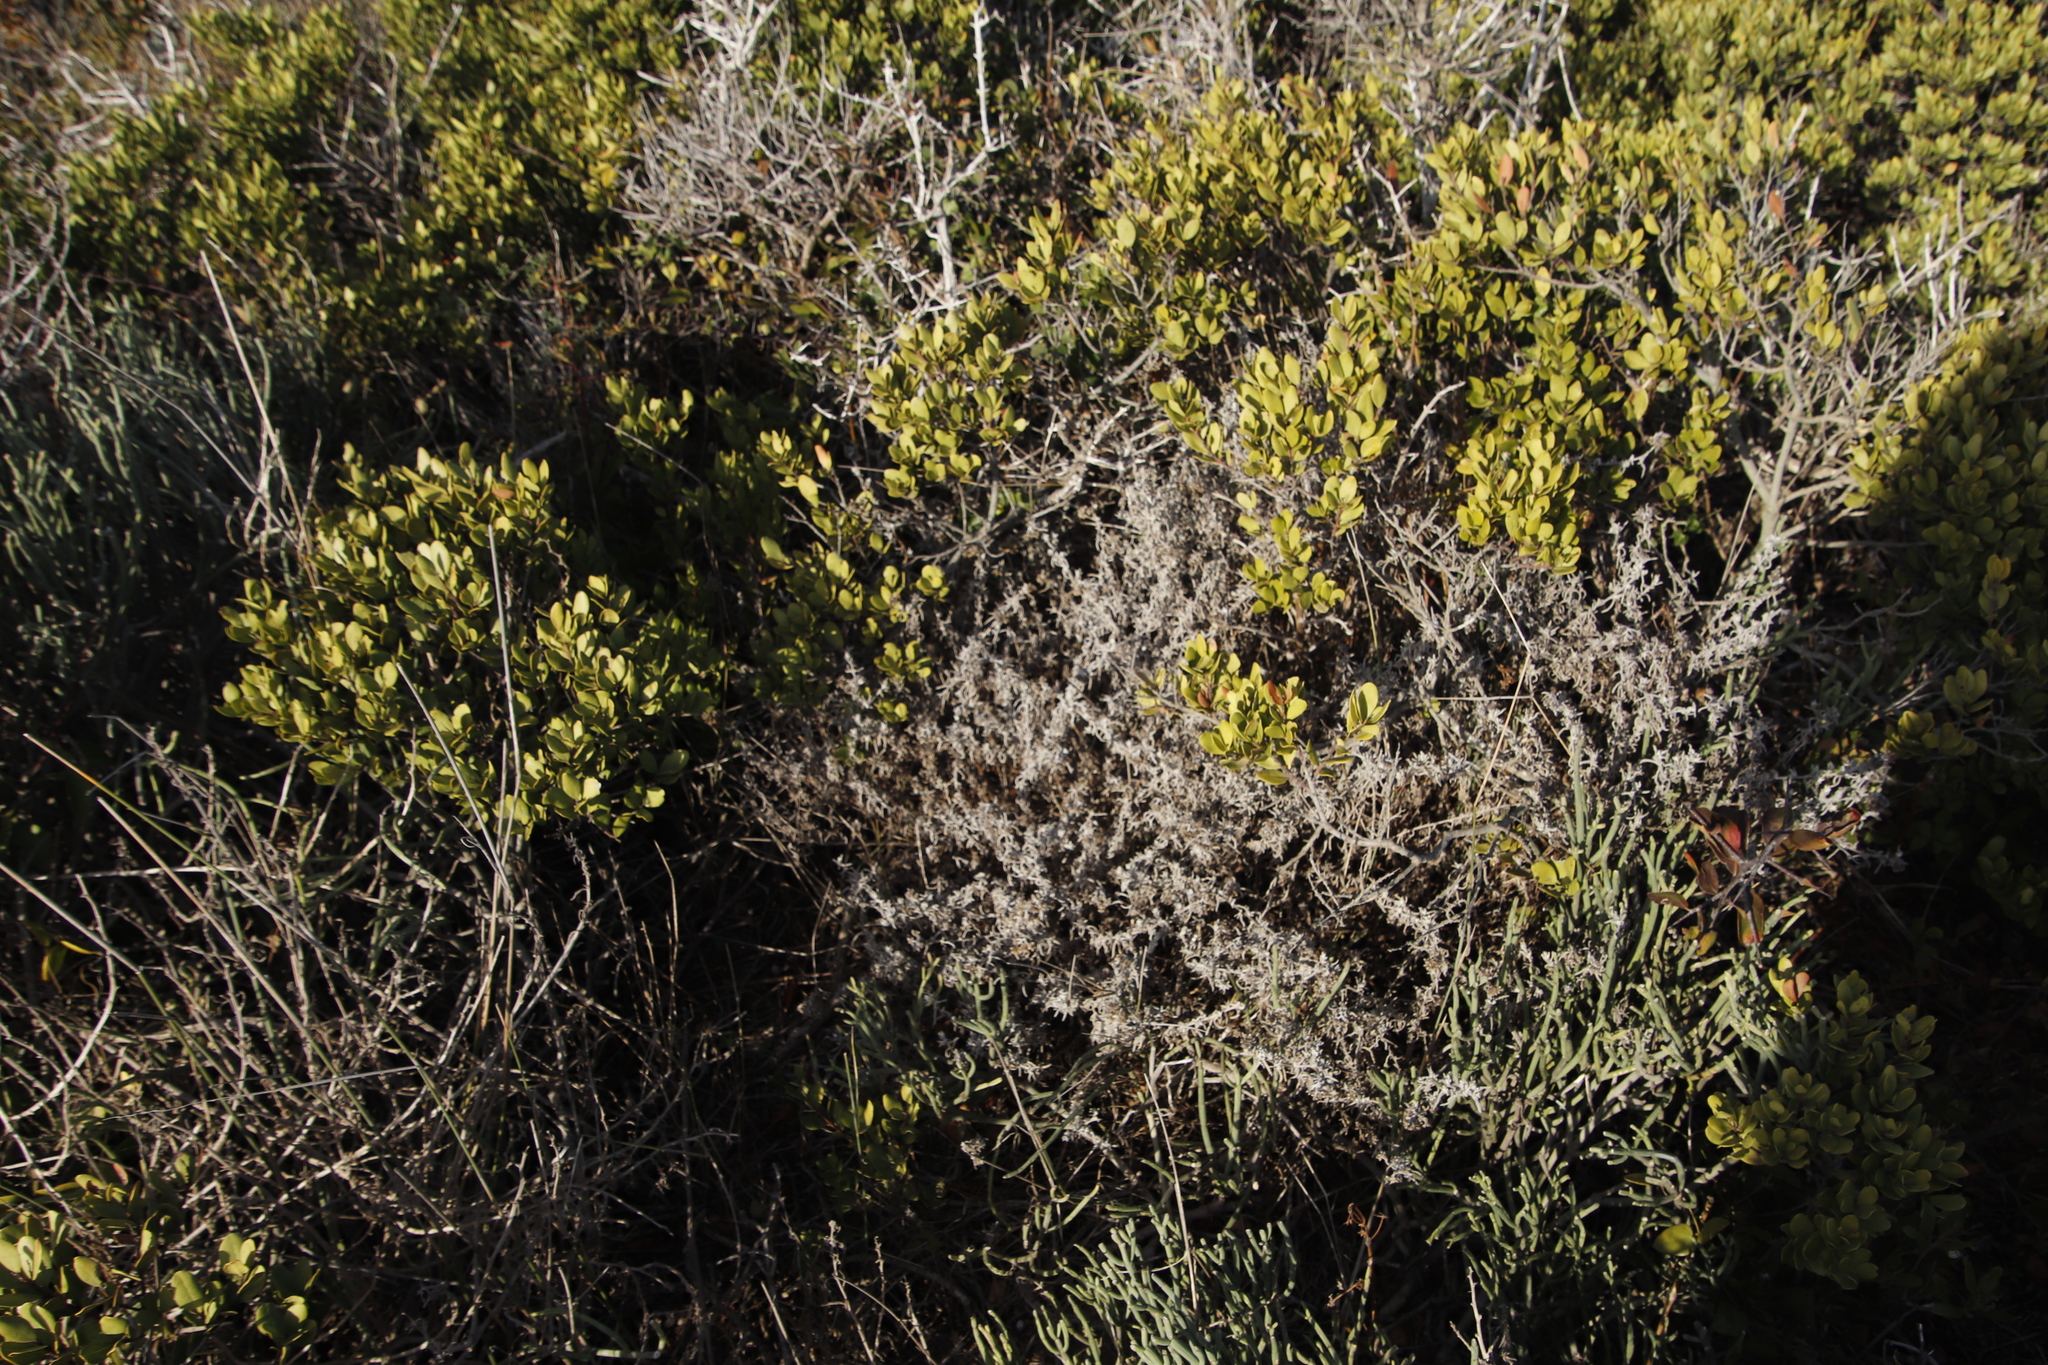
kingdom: Plantae
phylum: Tracheophyta
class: Magnoliopsida
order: Asterales
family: Asteraceae
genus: Helichrysum
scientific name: Helichrysum revolutum
